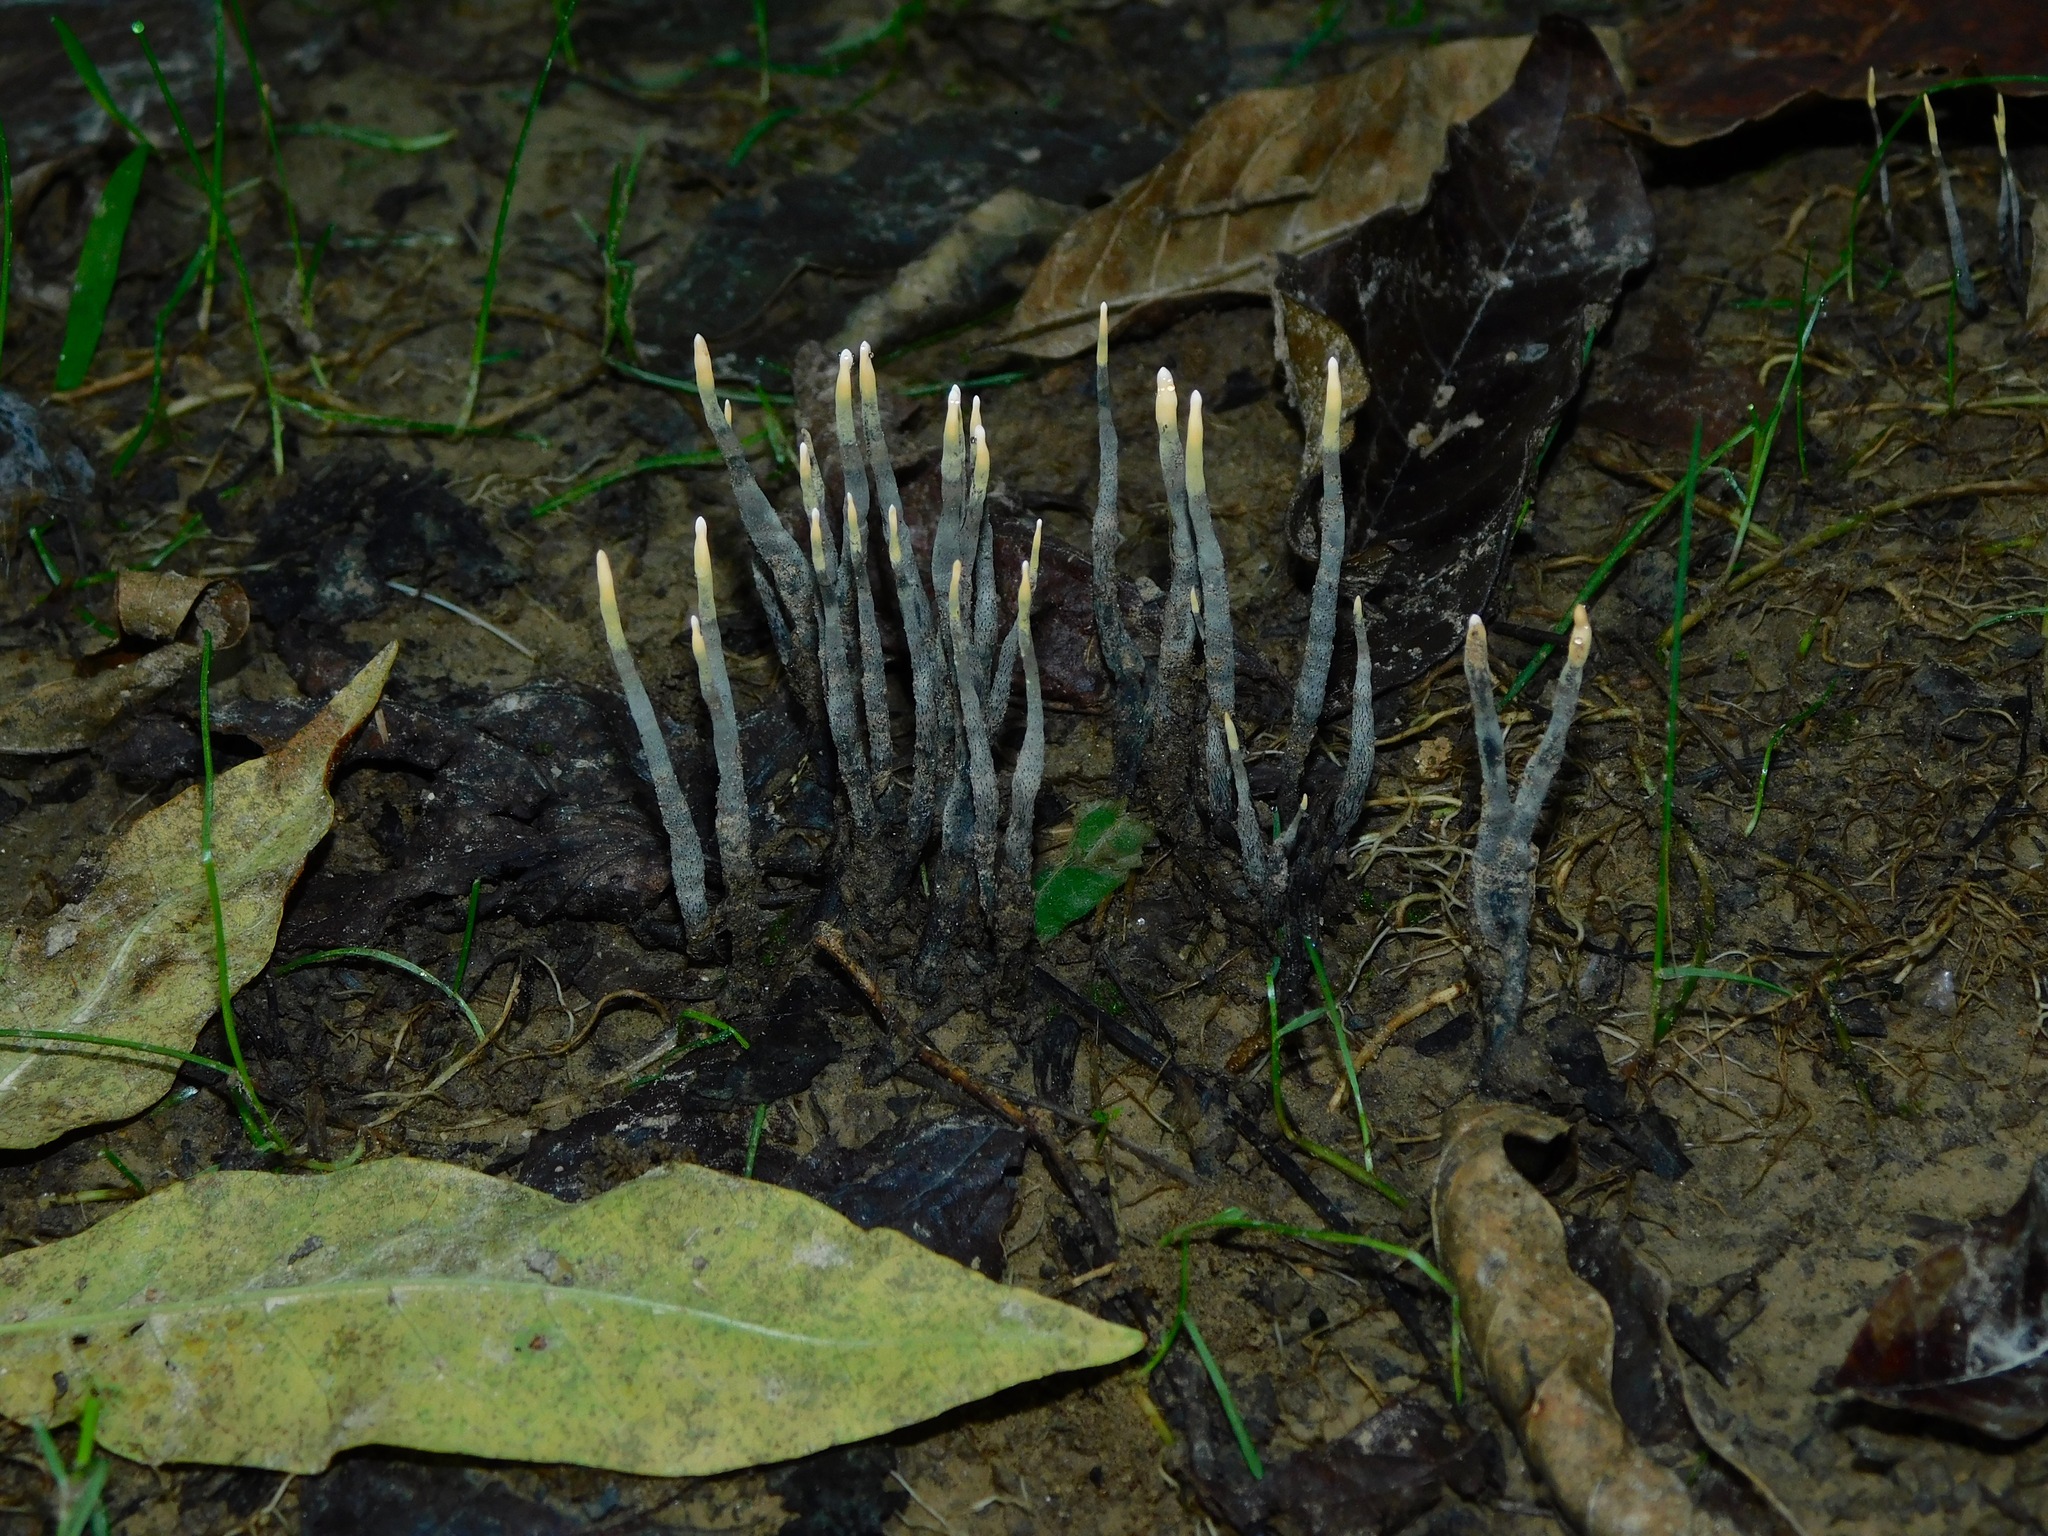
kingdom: Fungi
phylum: Ascomycota
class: Sordariomycetes
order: Xylariales
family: Xylariaceae
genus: Xylaria
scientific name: Xylaria filiformis
